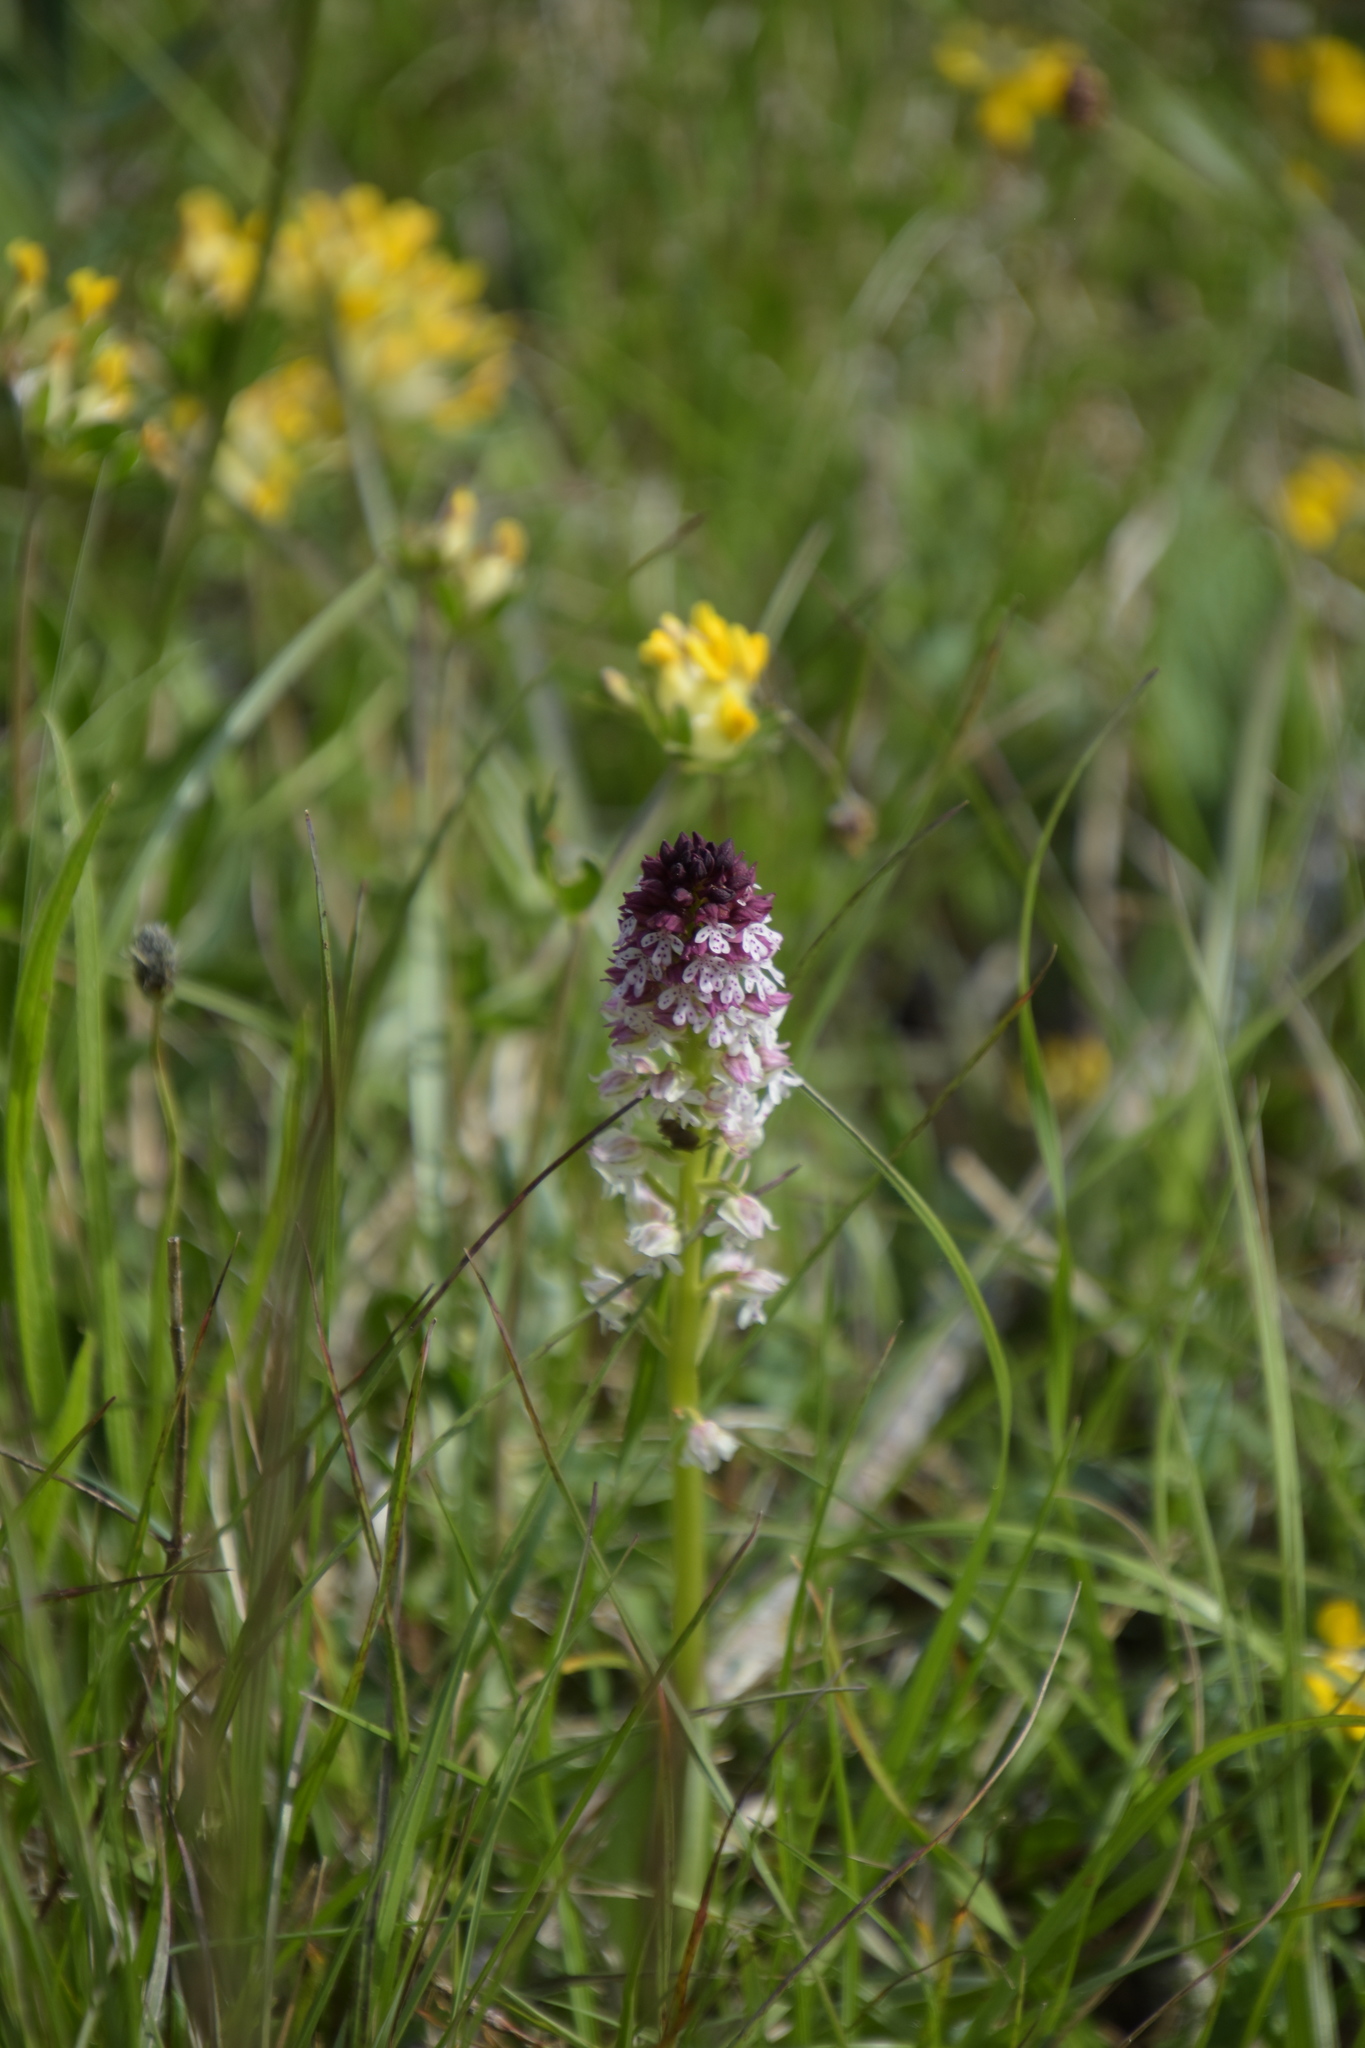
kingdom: Plantae
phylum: Tracheophyta
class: Liliopsida
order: Asparagales
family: Orchidaceae
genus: Neotinea
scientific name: Neotinea ustulata
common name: Burnt orchid
